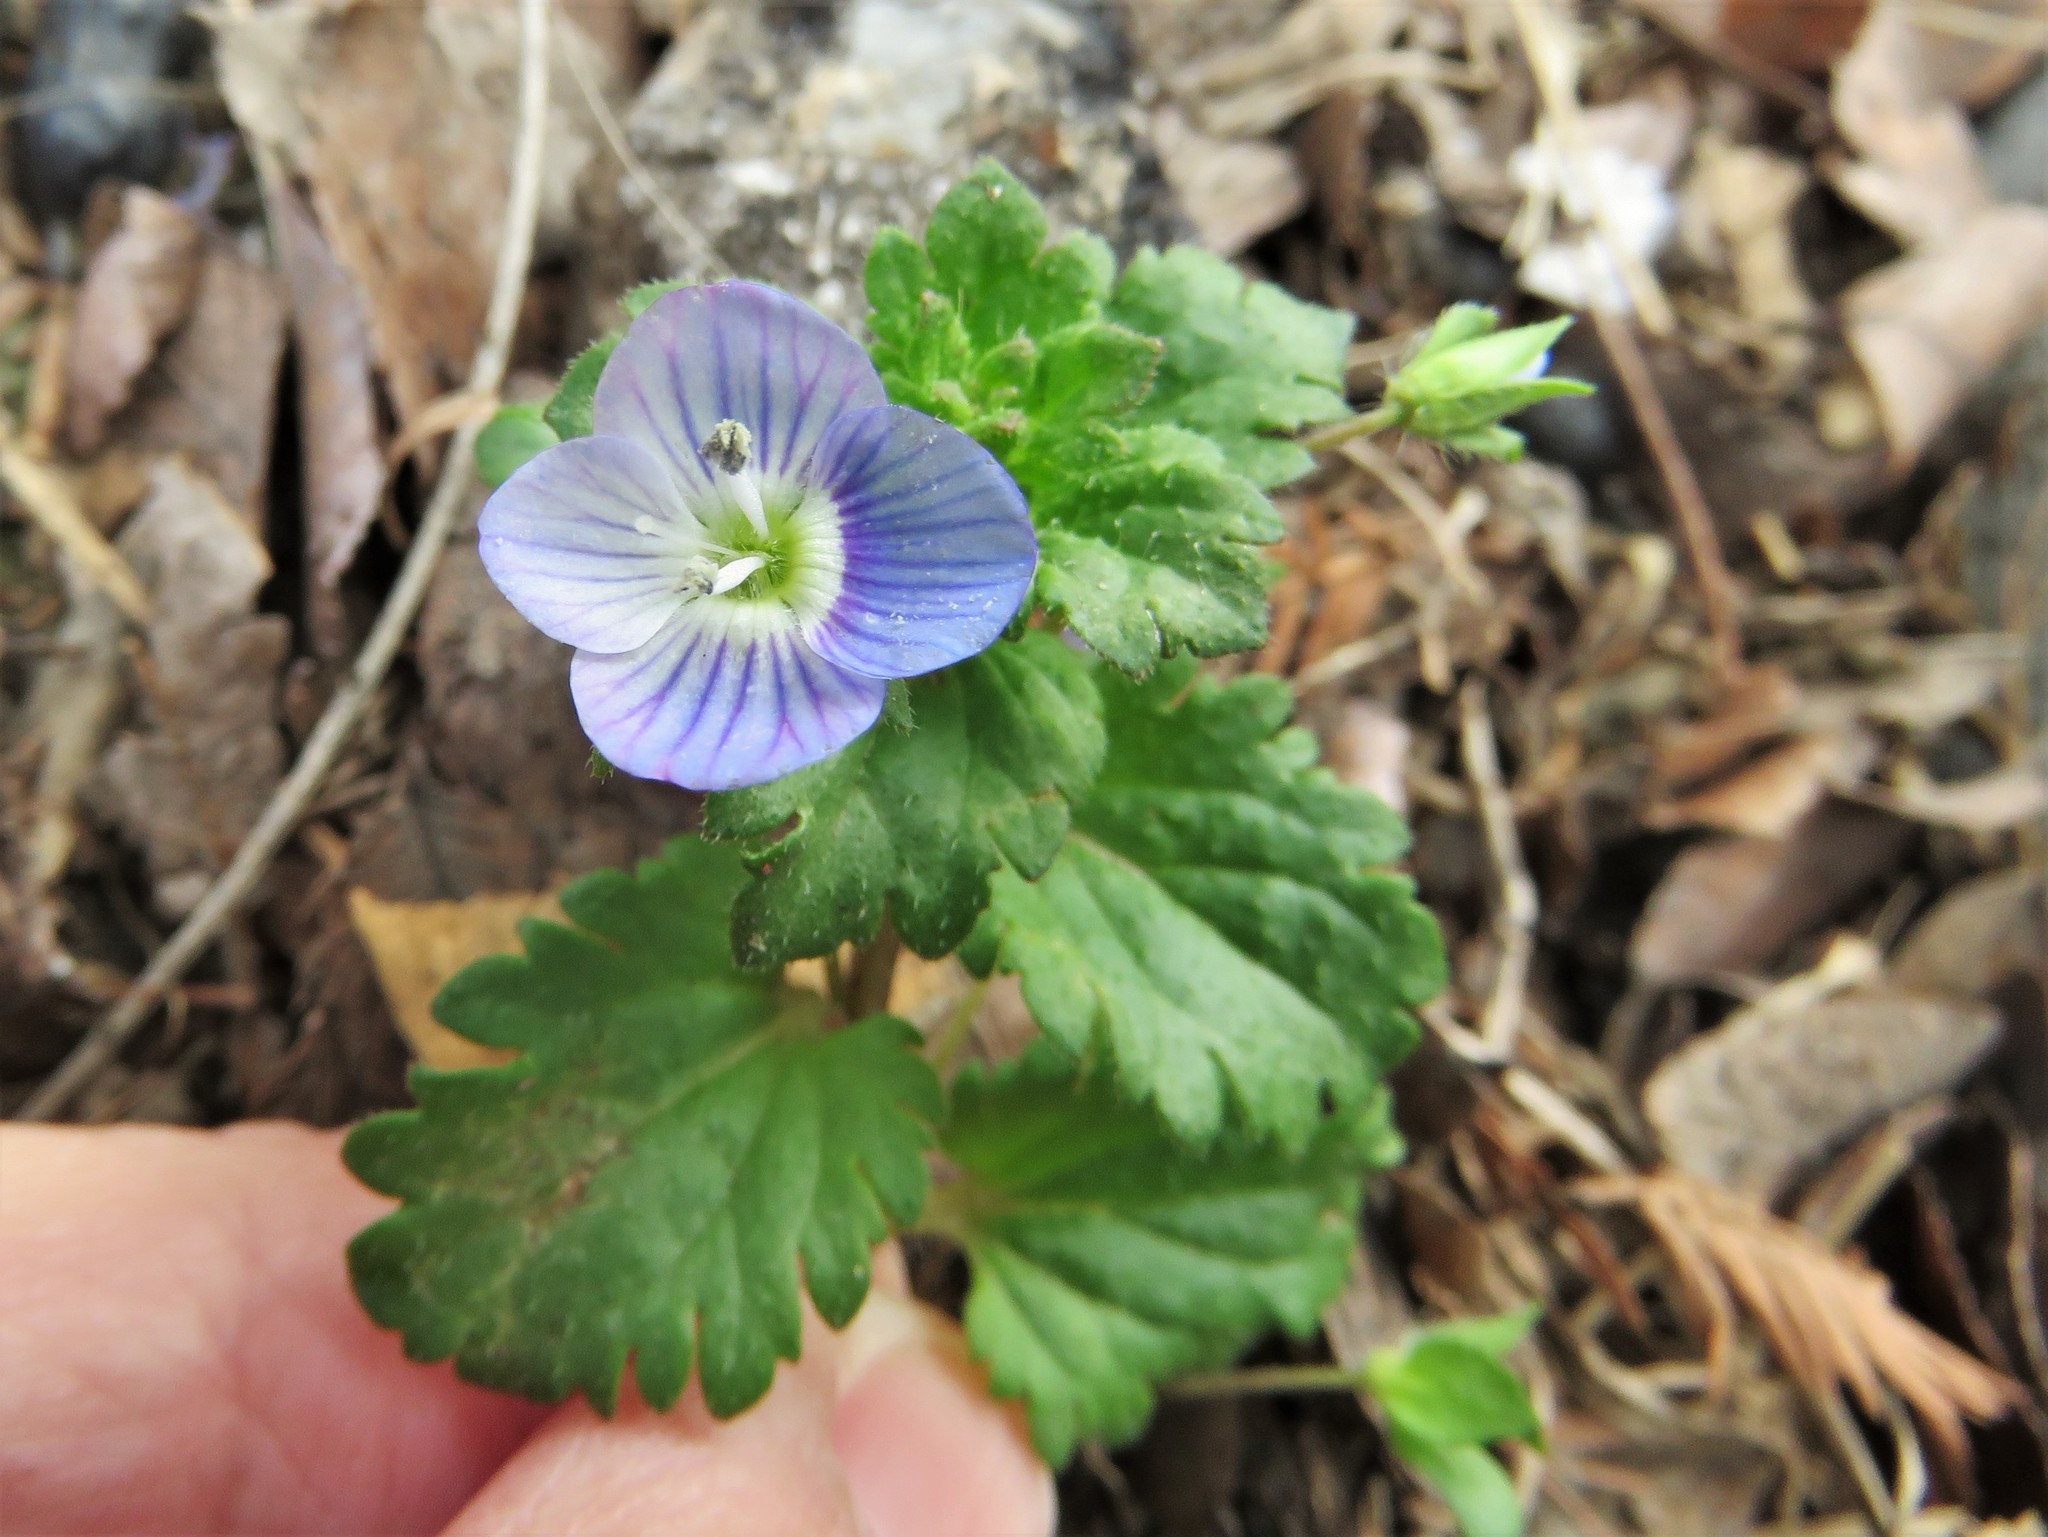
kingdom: Plantae
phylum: Tracheophyta
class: Magnoliopsida
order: Lamiales
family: Plantaginaceae
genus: Veronica
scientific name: Veronica persica
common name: Common field-speedwell
